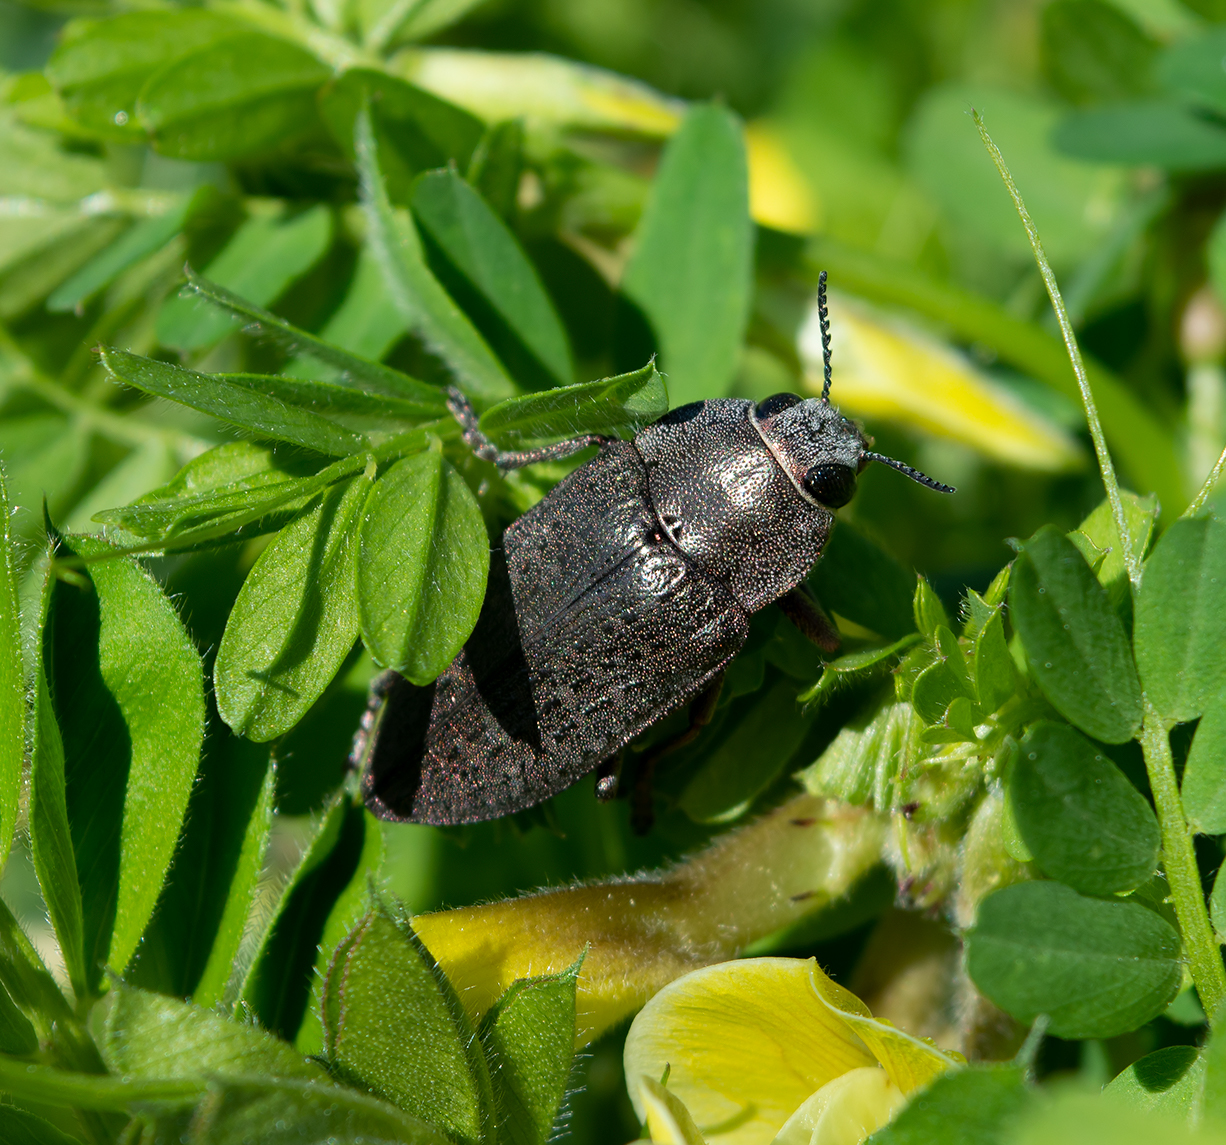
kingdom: Animalia
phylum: Arthropoda
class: Insecta
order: Coleoptera
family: Buprestidae
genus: Perotis
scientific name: Perotis lugubris
